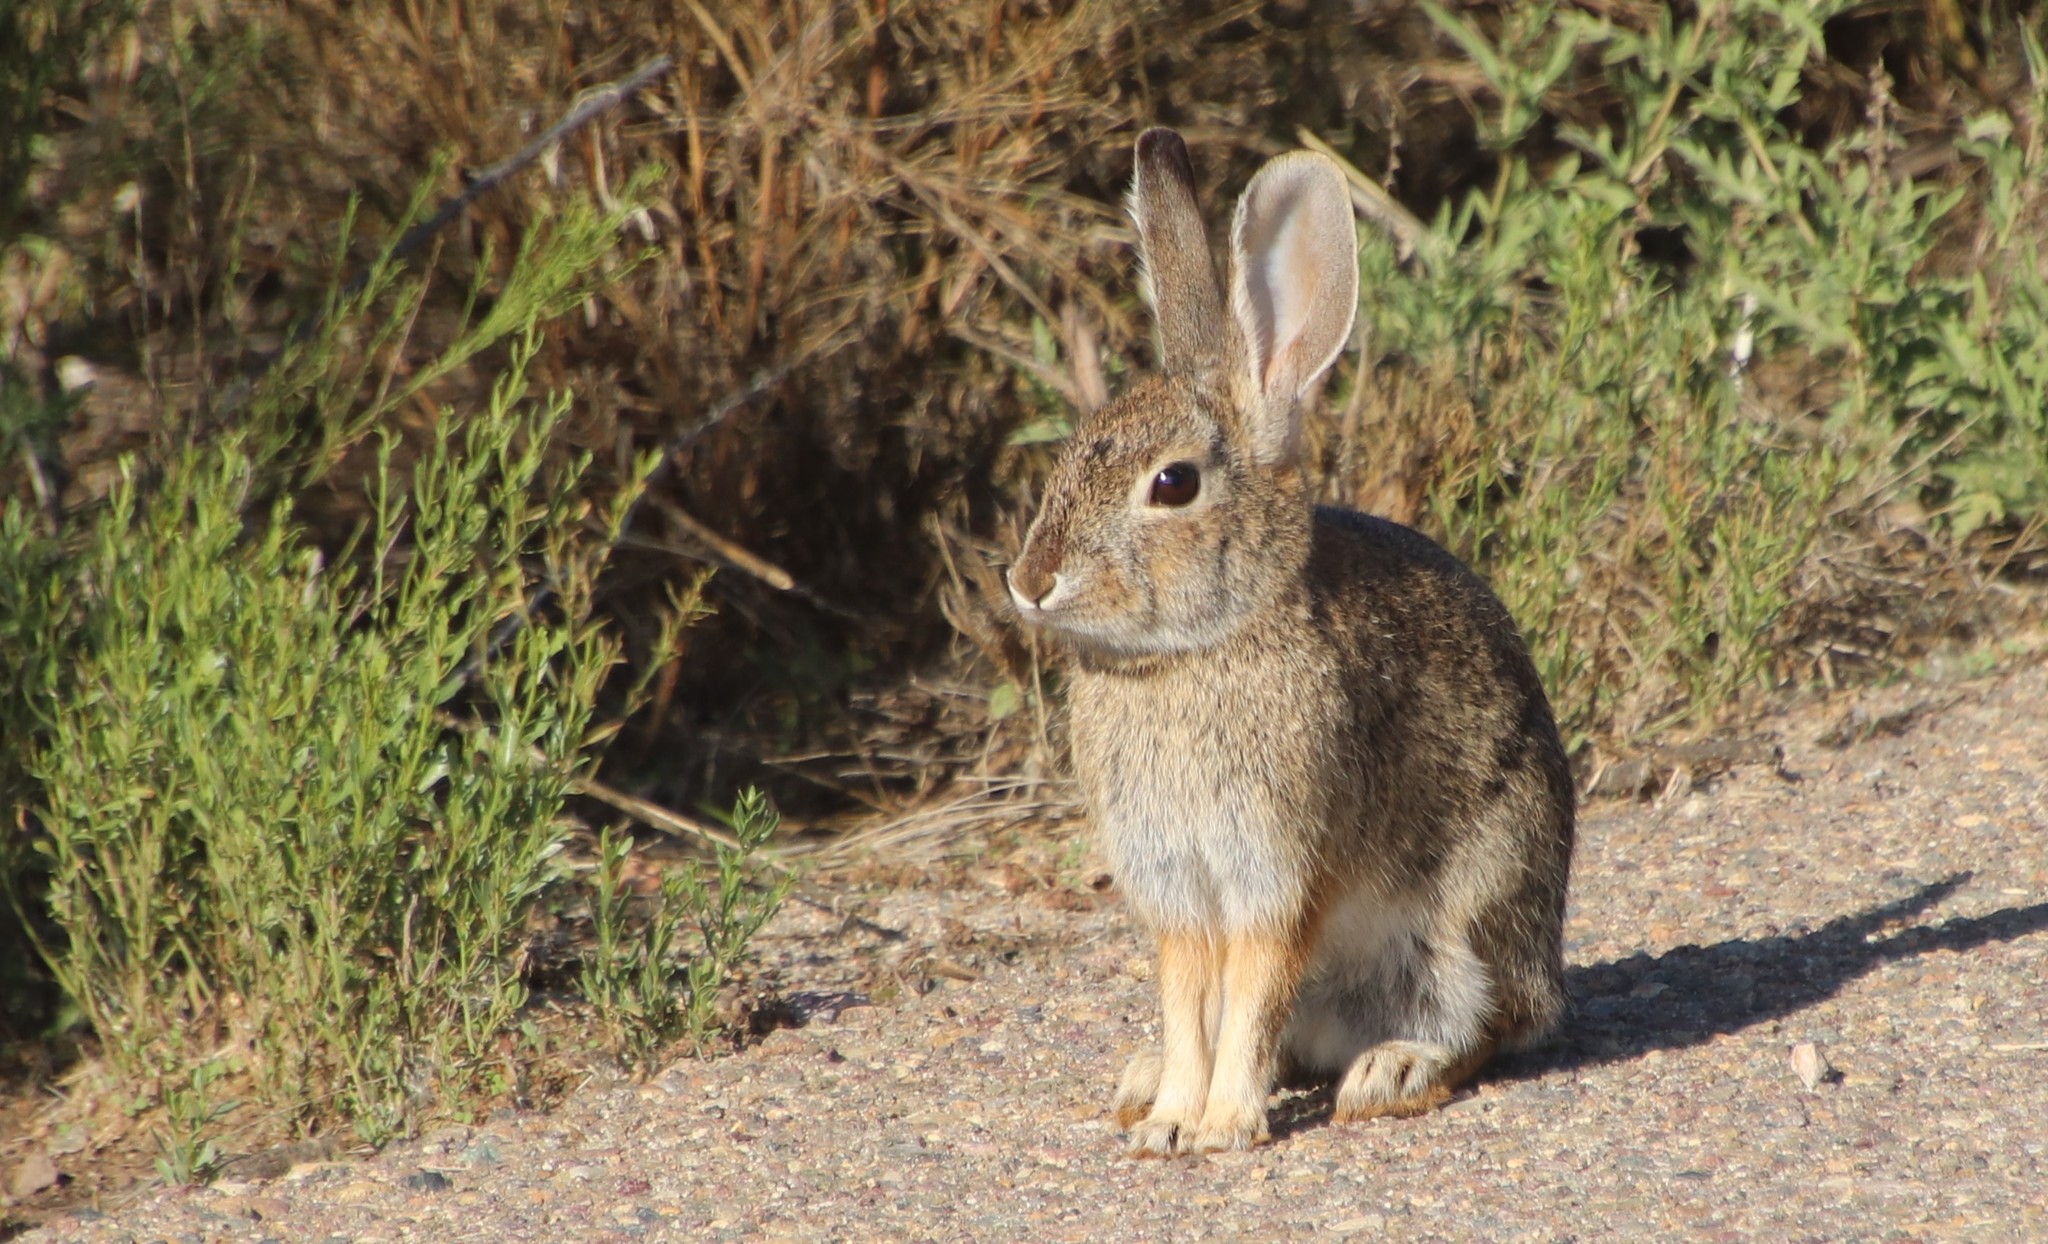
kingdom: Animalia
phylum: Chordata
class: Mammalia
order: Lagomorpha
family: Leporidae
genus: Sylvilagus
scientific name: Sylvilagus audubonii
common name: Desert cottontail
